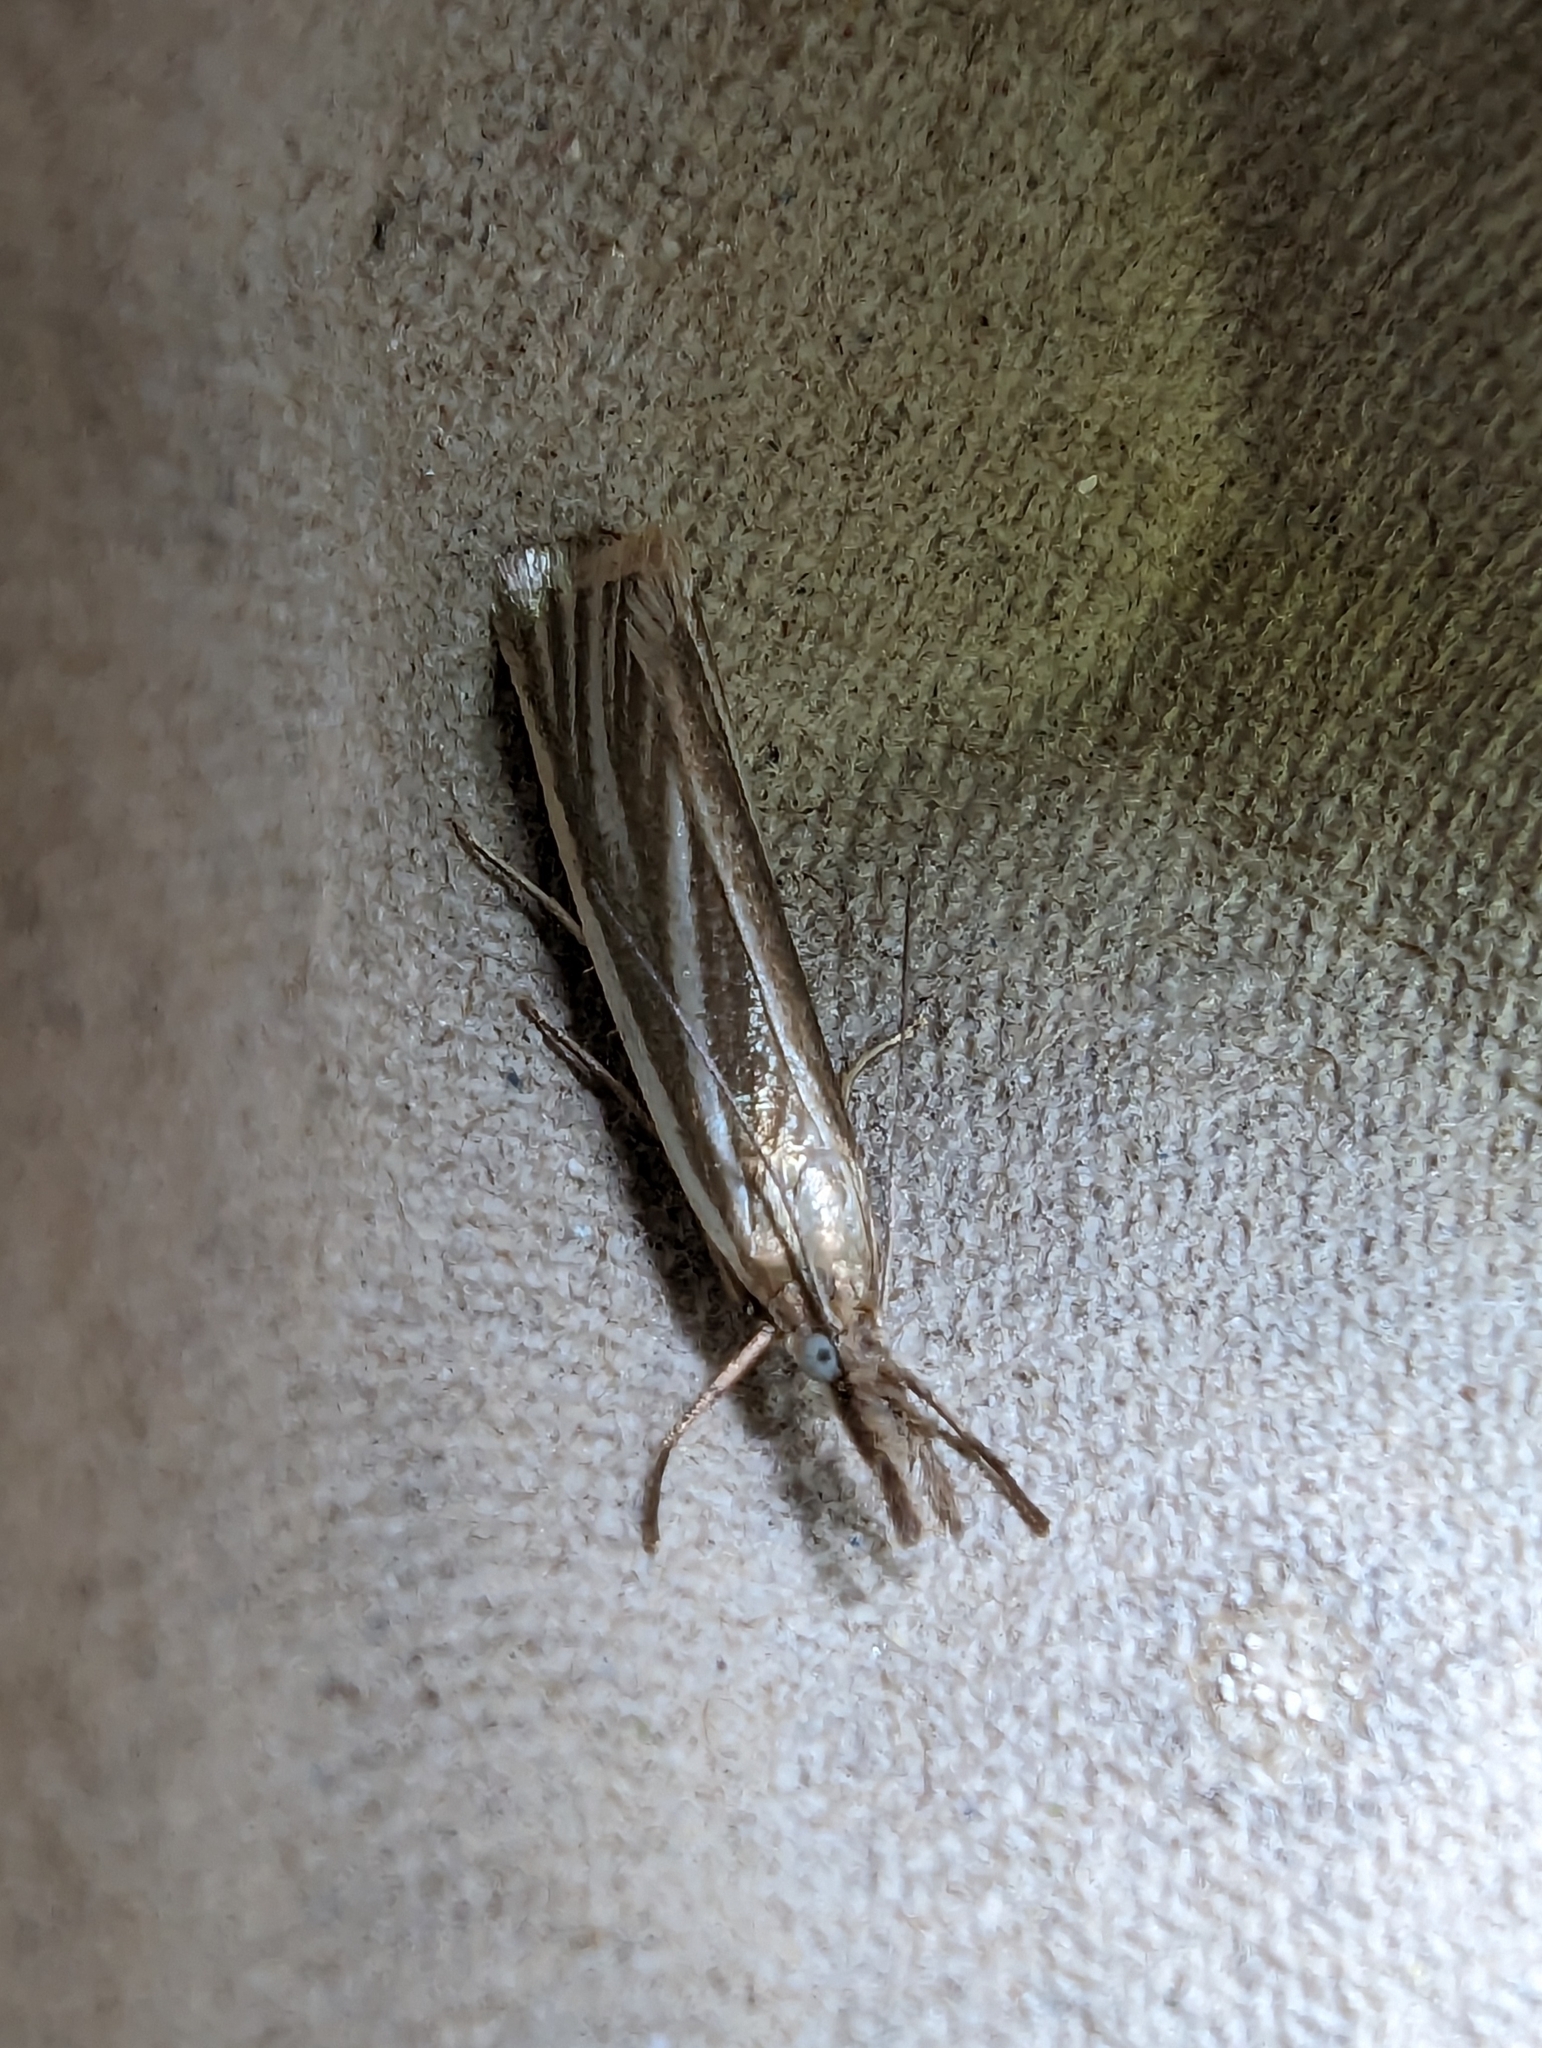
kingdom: Animalia
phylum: Arthropoda
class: Insecta
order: Lepidoptera
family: Crambidae
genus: Crambus
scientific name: Crambus perlellus
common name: Yellow satin veneer
